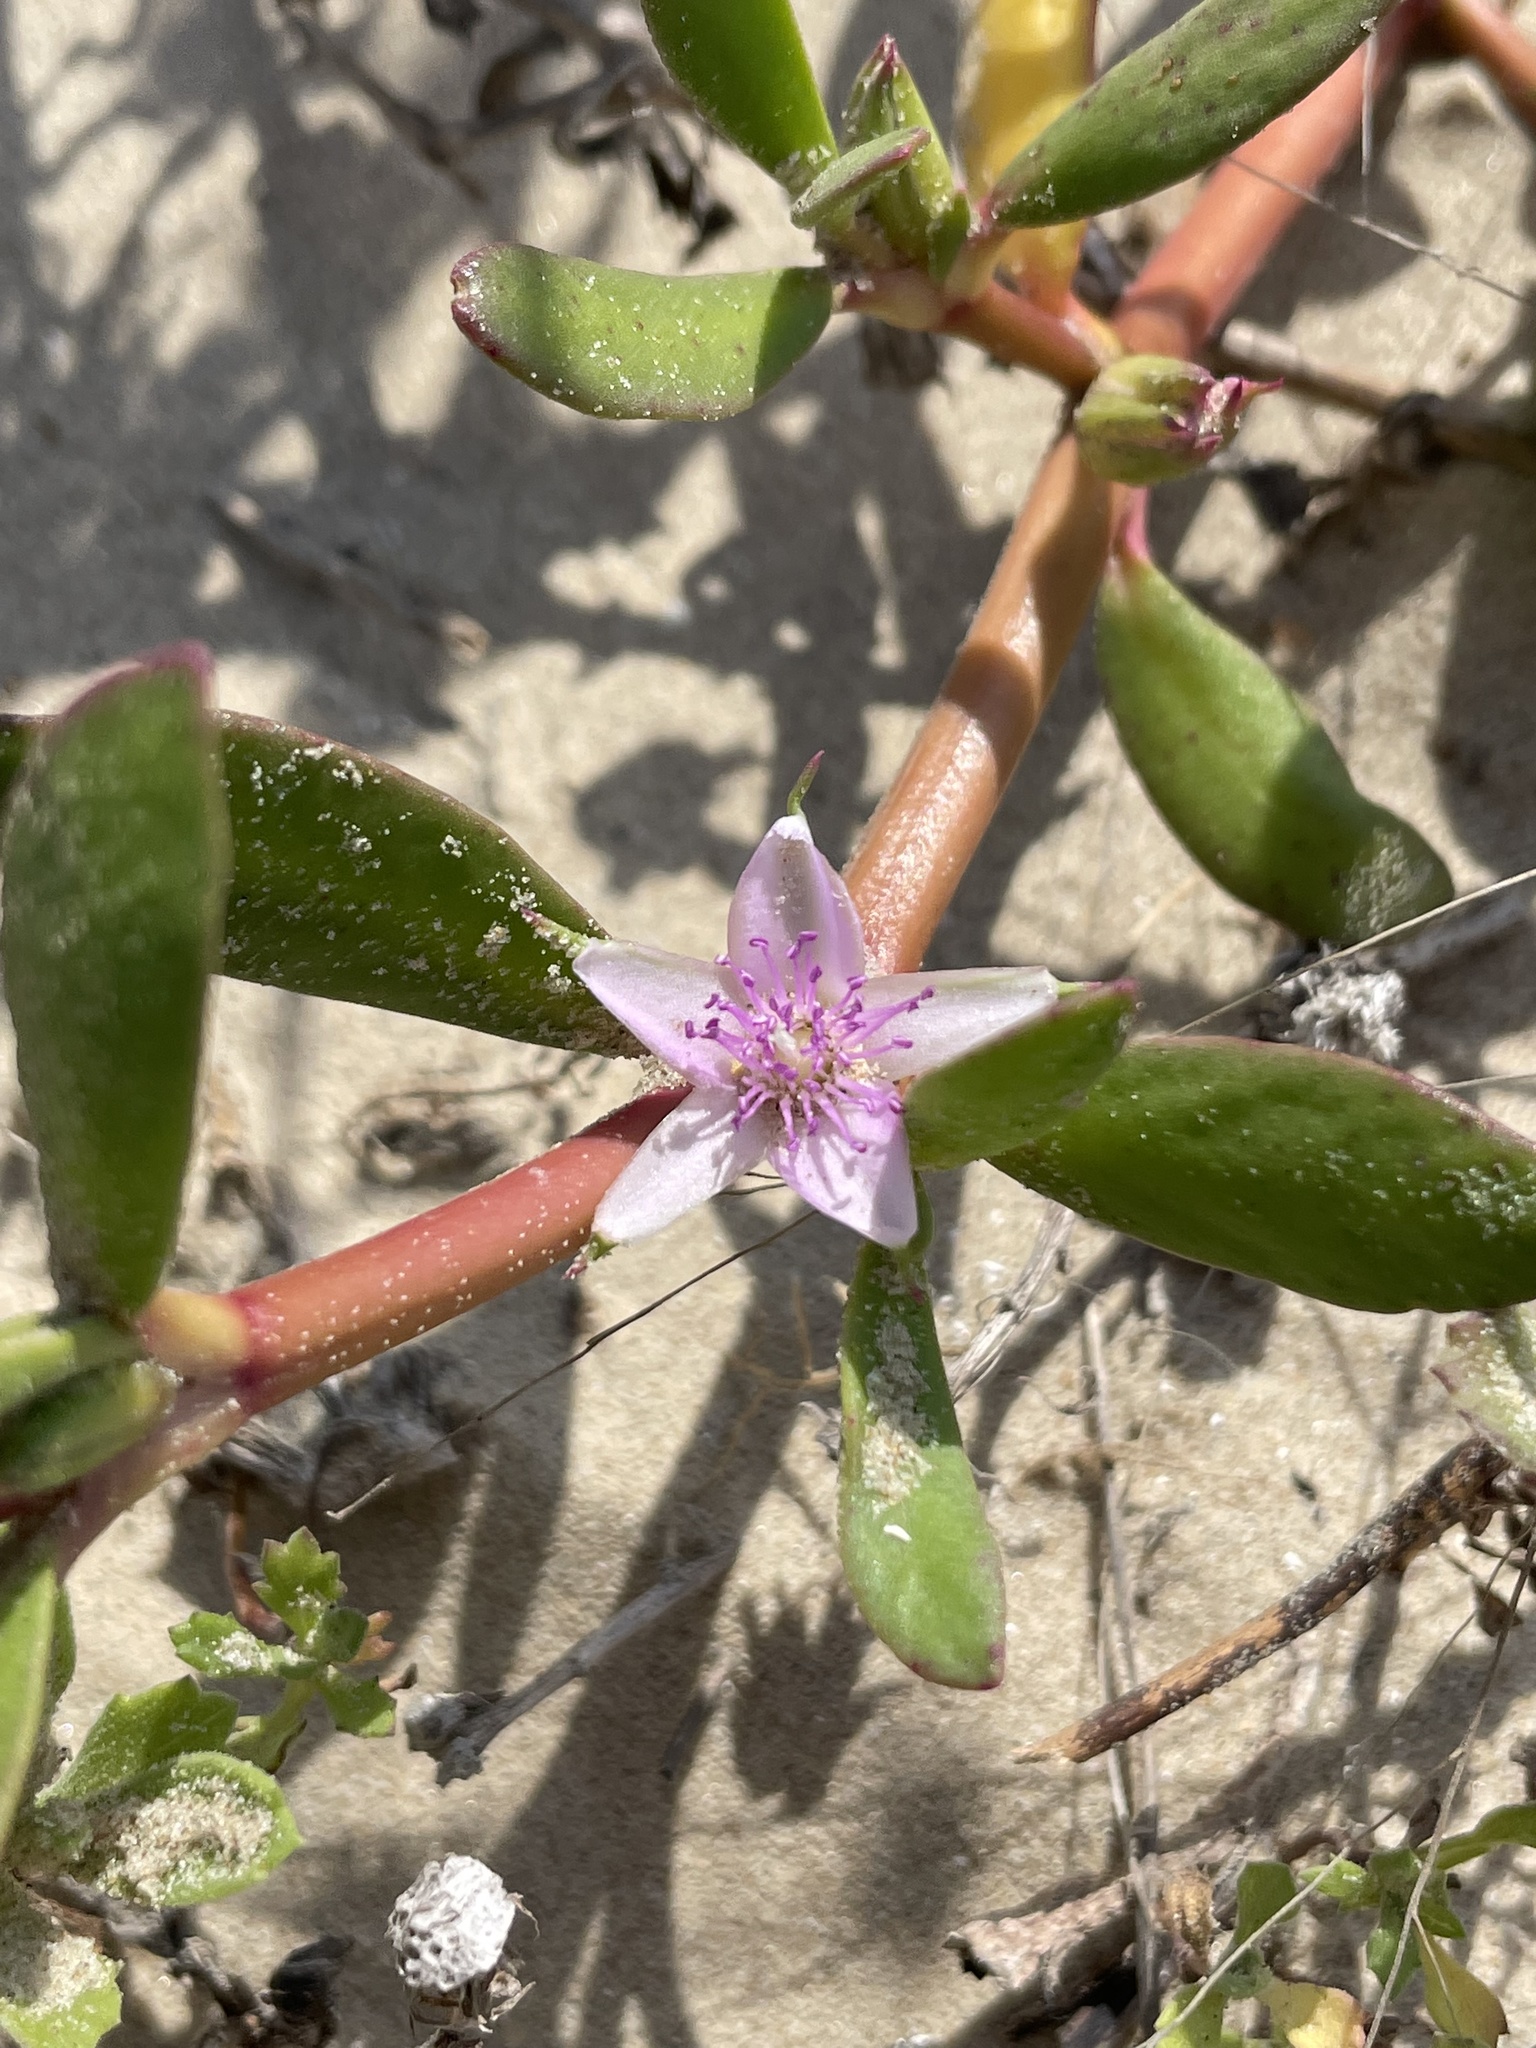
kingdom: Plantae
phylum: Tracheophyta
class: Magnoliopsida
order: Caryophyllales
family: Aizoaceae
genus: Sesuvium
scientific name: Sesuvium portulacastrum
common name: Sea-purslane
